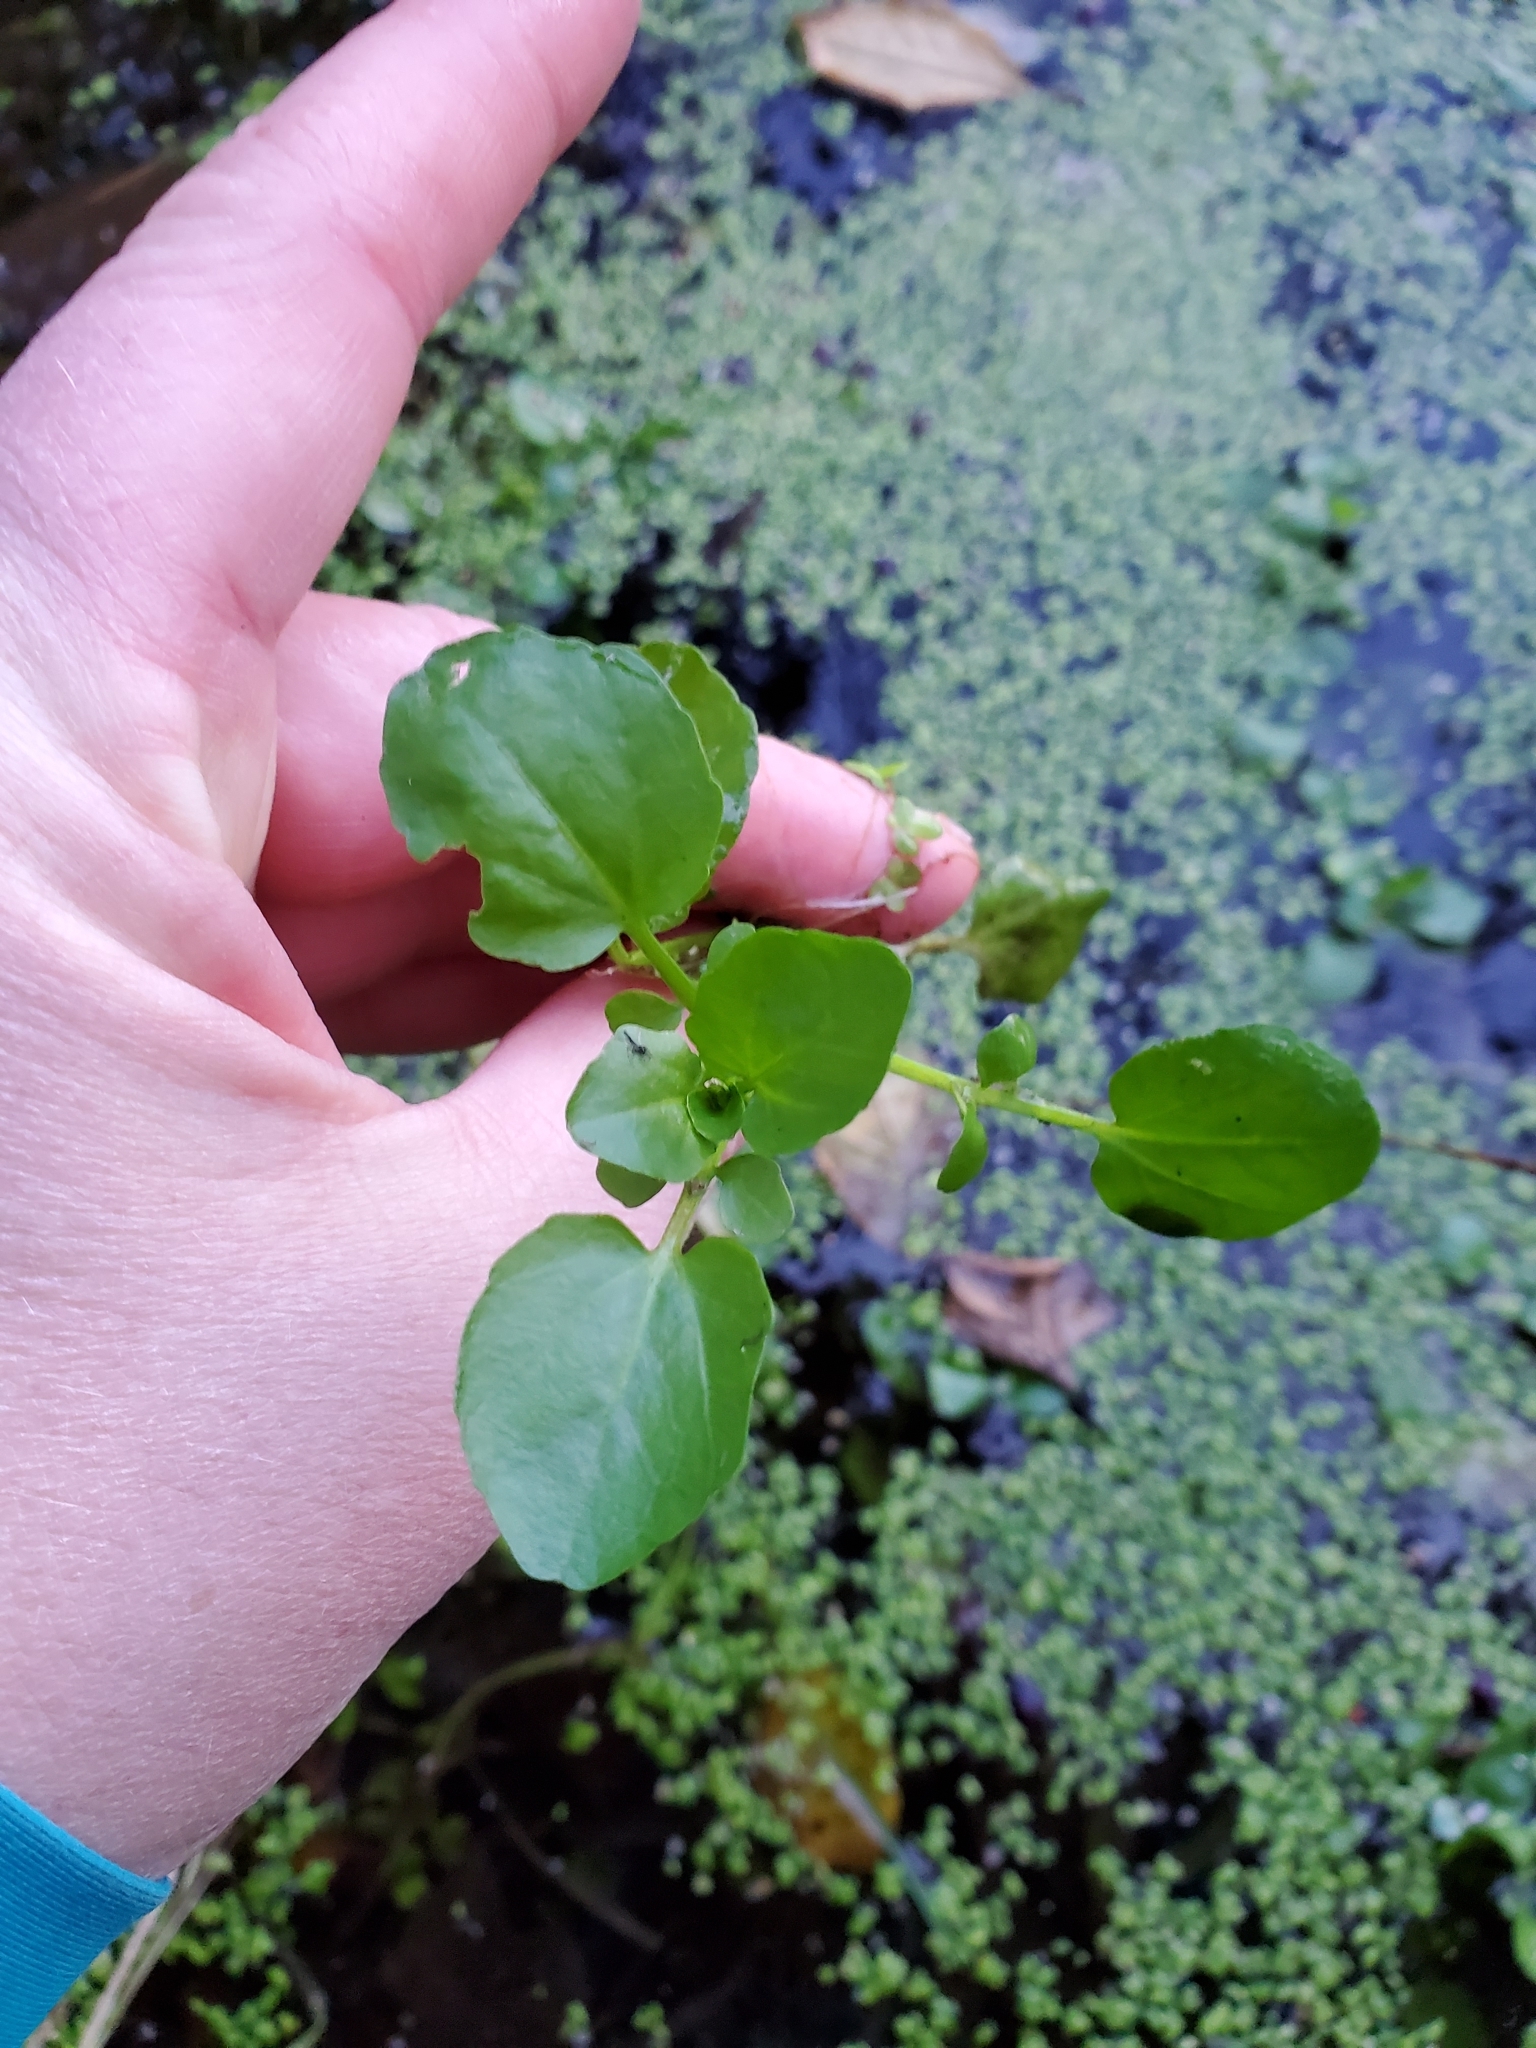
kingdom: Plantae
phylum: Tracheophyta
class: Magnoliopsida
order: Brassicales
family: Brassicaceae
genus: Nasturtium
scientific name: Nasturtium officinale
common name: Watercress
